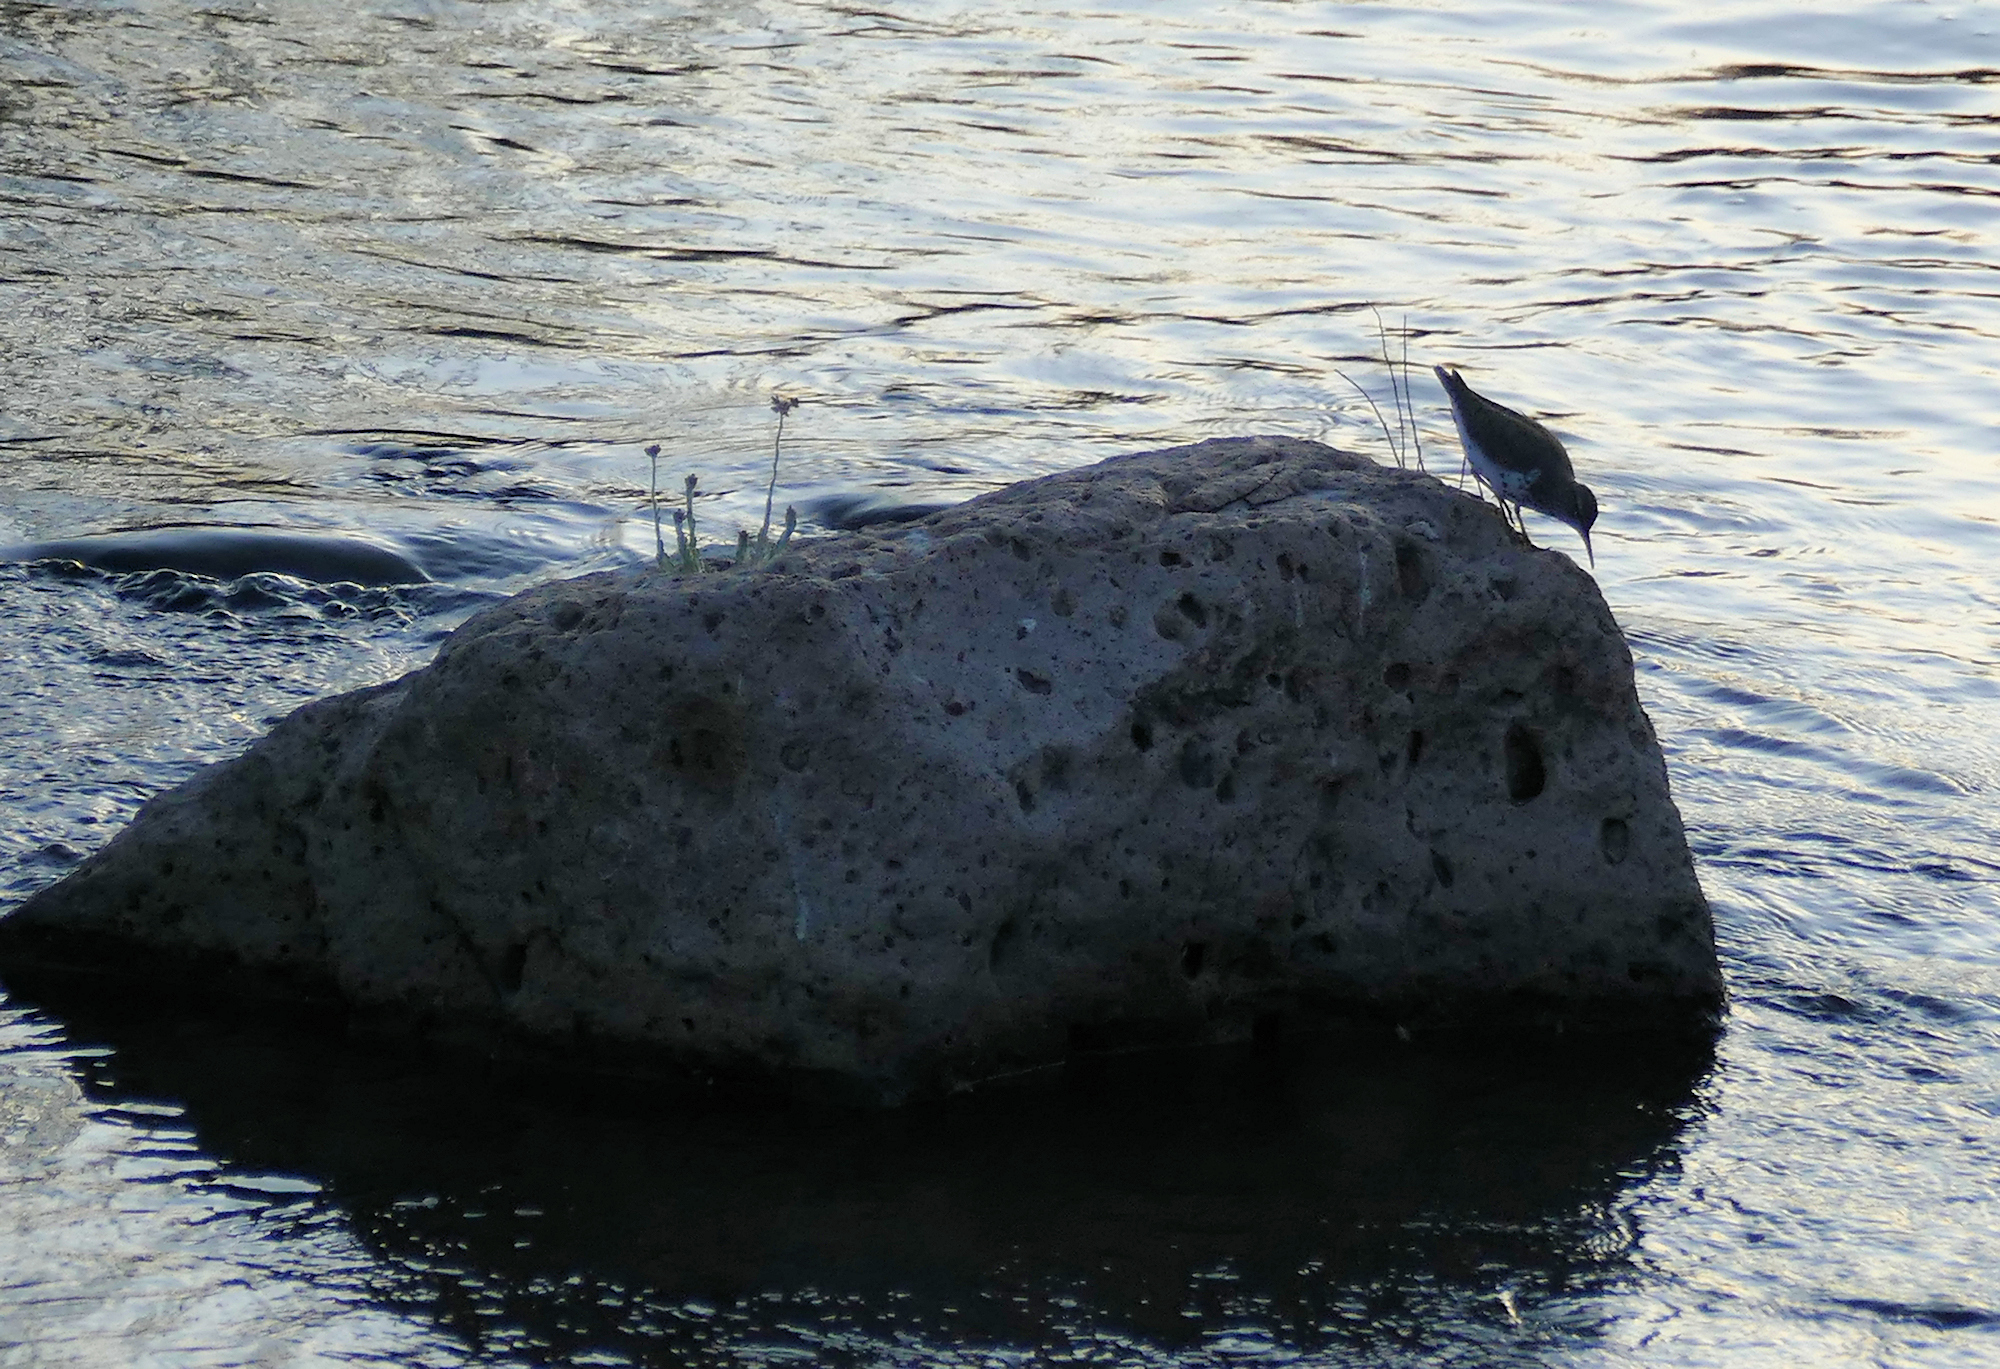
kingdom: Animalia
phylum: Chordata
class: Aves
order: Charadriiformes
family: Scolopacidae
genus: Actitis
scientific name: Actitis macularius
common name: Spotted sandpiper
